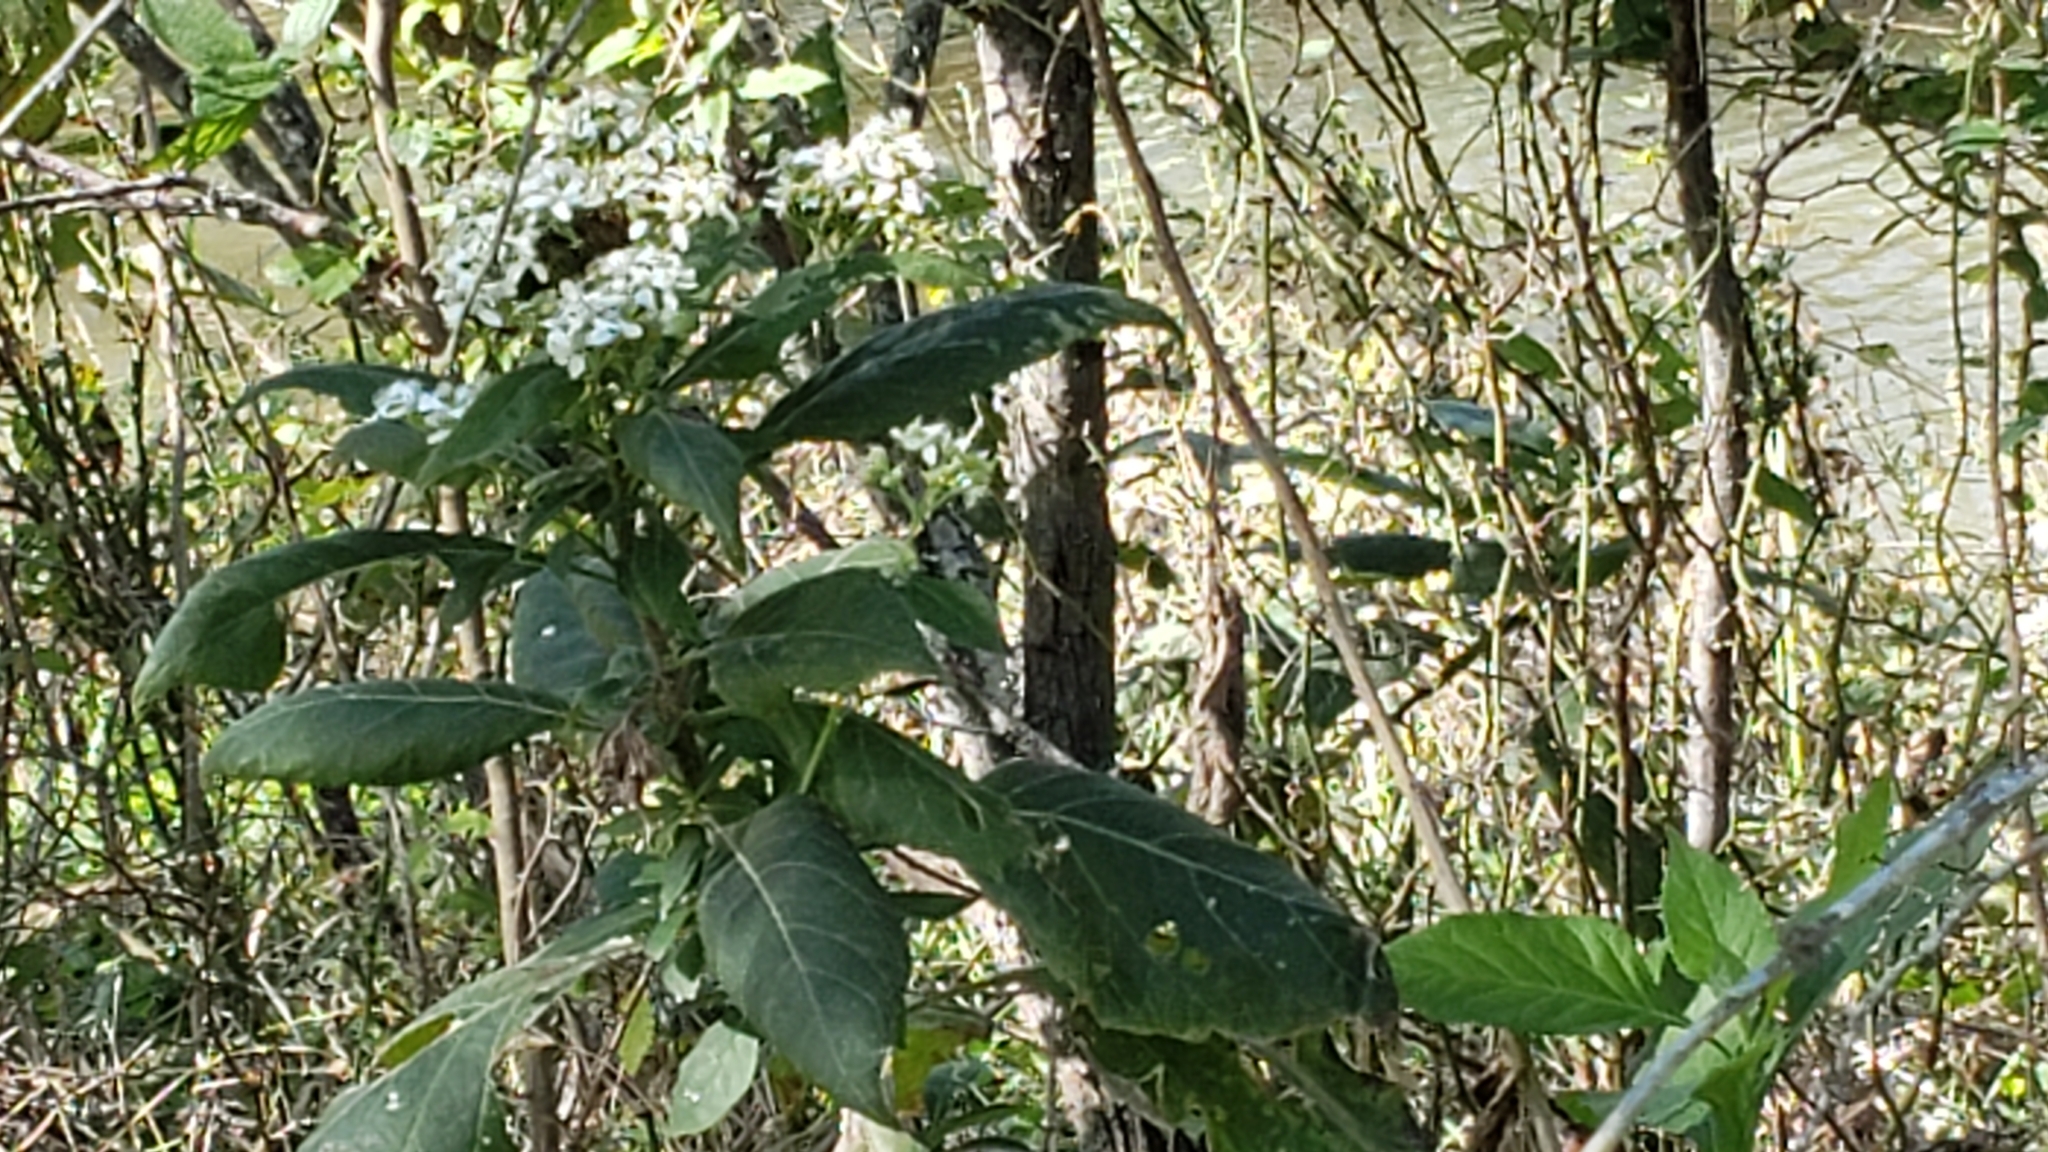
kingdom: Plantae
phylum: Tracheophyta
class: Magnoliopsida
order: Asterales
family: Asteraceae
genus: Verbesina
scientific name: Verbesina virginica
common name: Frostweed
